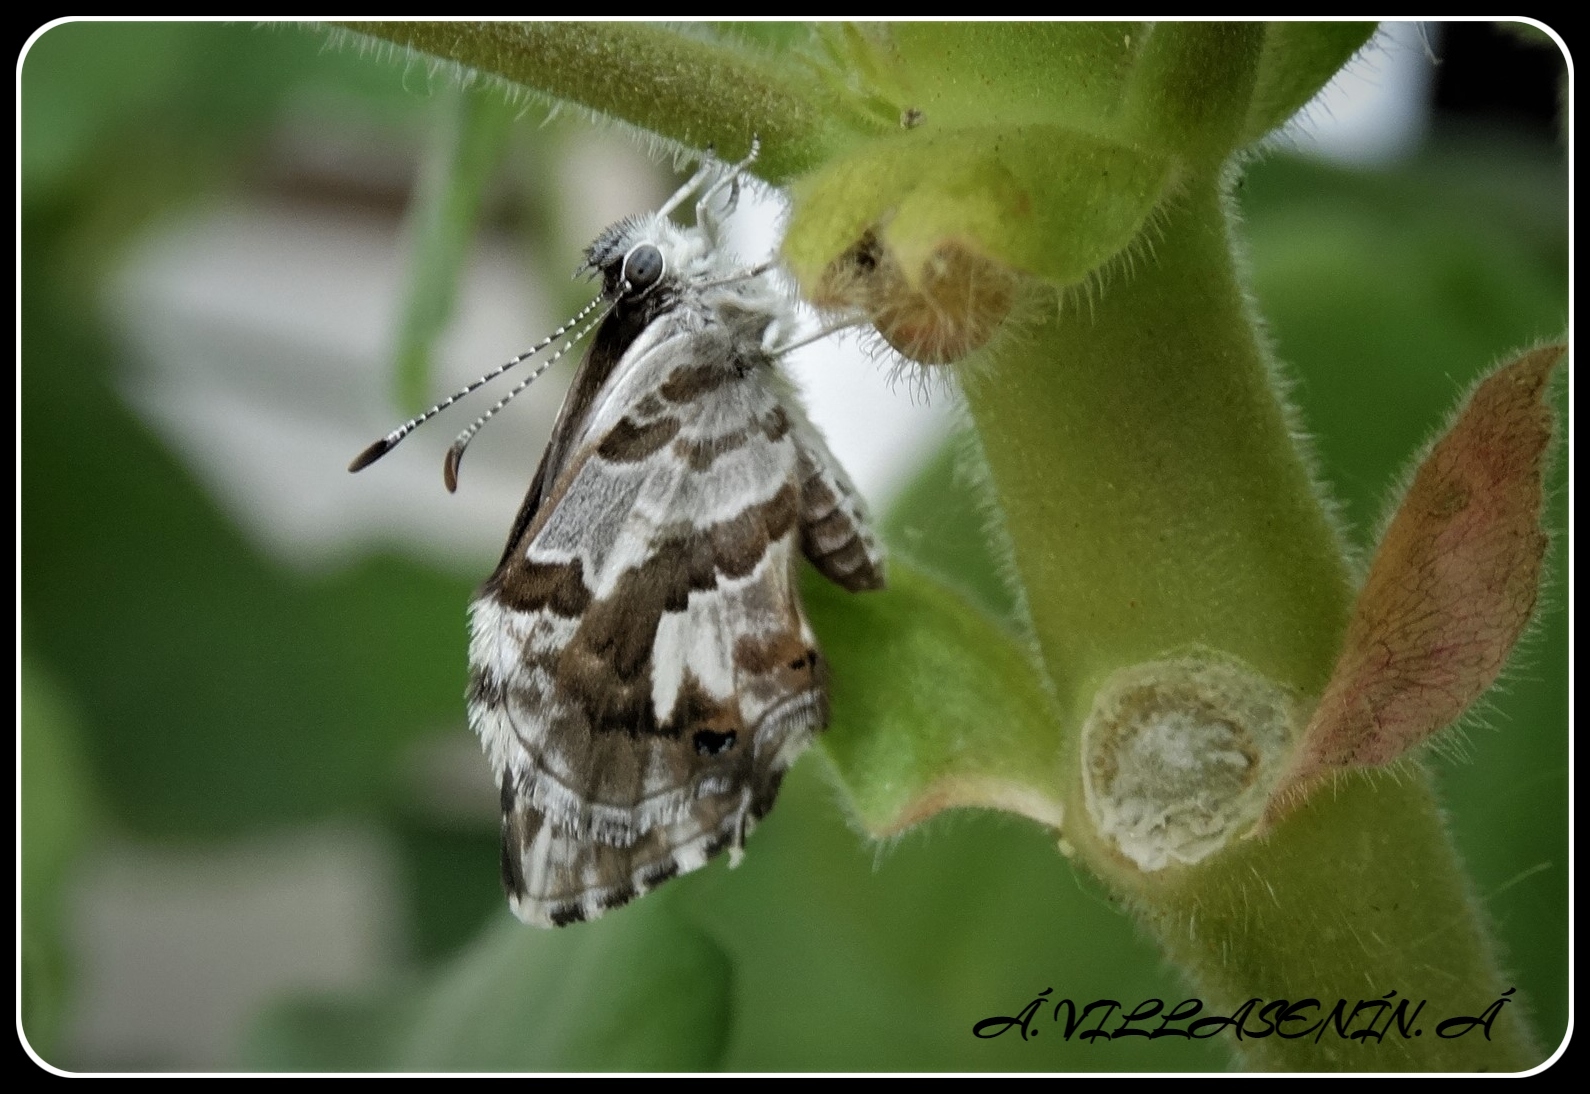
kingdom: Animalia
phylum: Arthropoda
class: Insecta
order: Lepidoptera
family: Lycaenidae
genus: Cacyreus
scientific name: Cacyreus marshalli
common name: Geranium bronze
